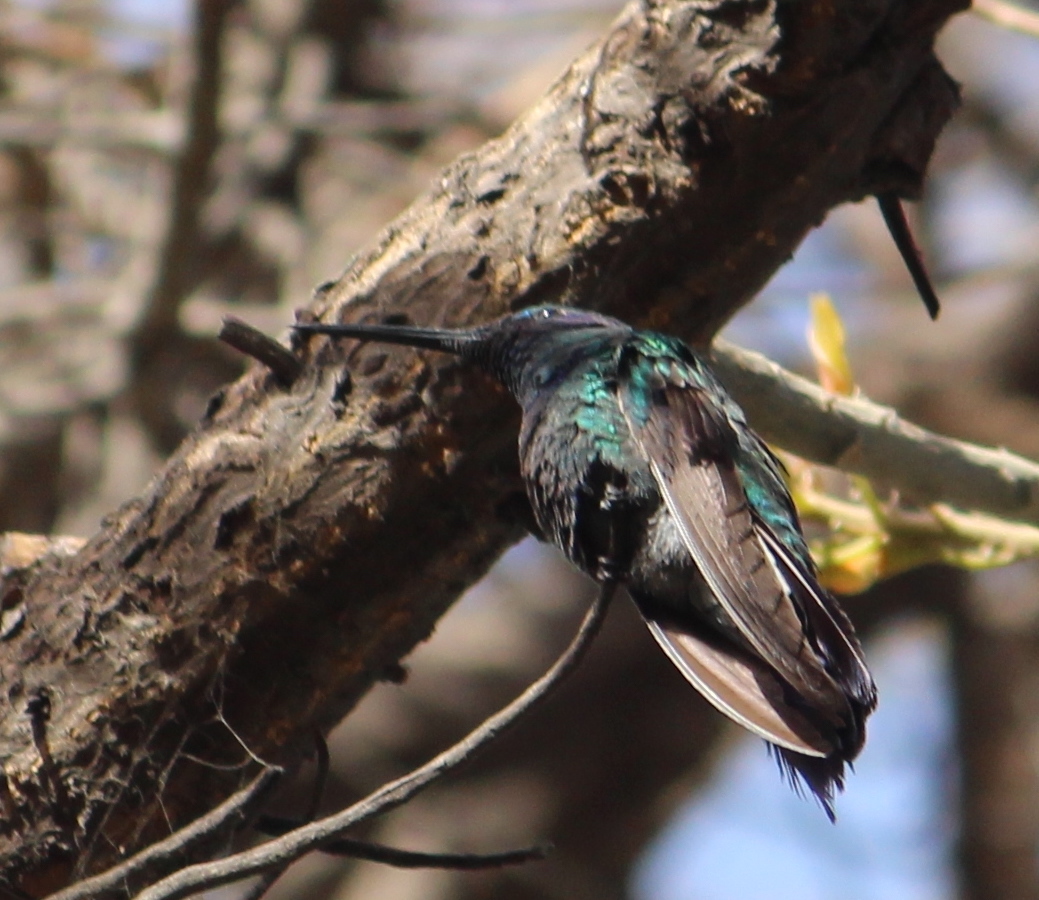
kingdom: Animalia
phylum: Chordata
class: Aves
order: Apodiformes
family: Trochilidae
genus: Colibri
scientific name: Colibri coruscans
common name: Sparkling violetear
